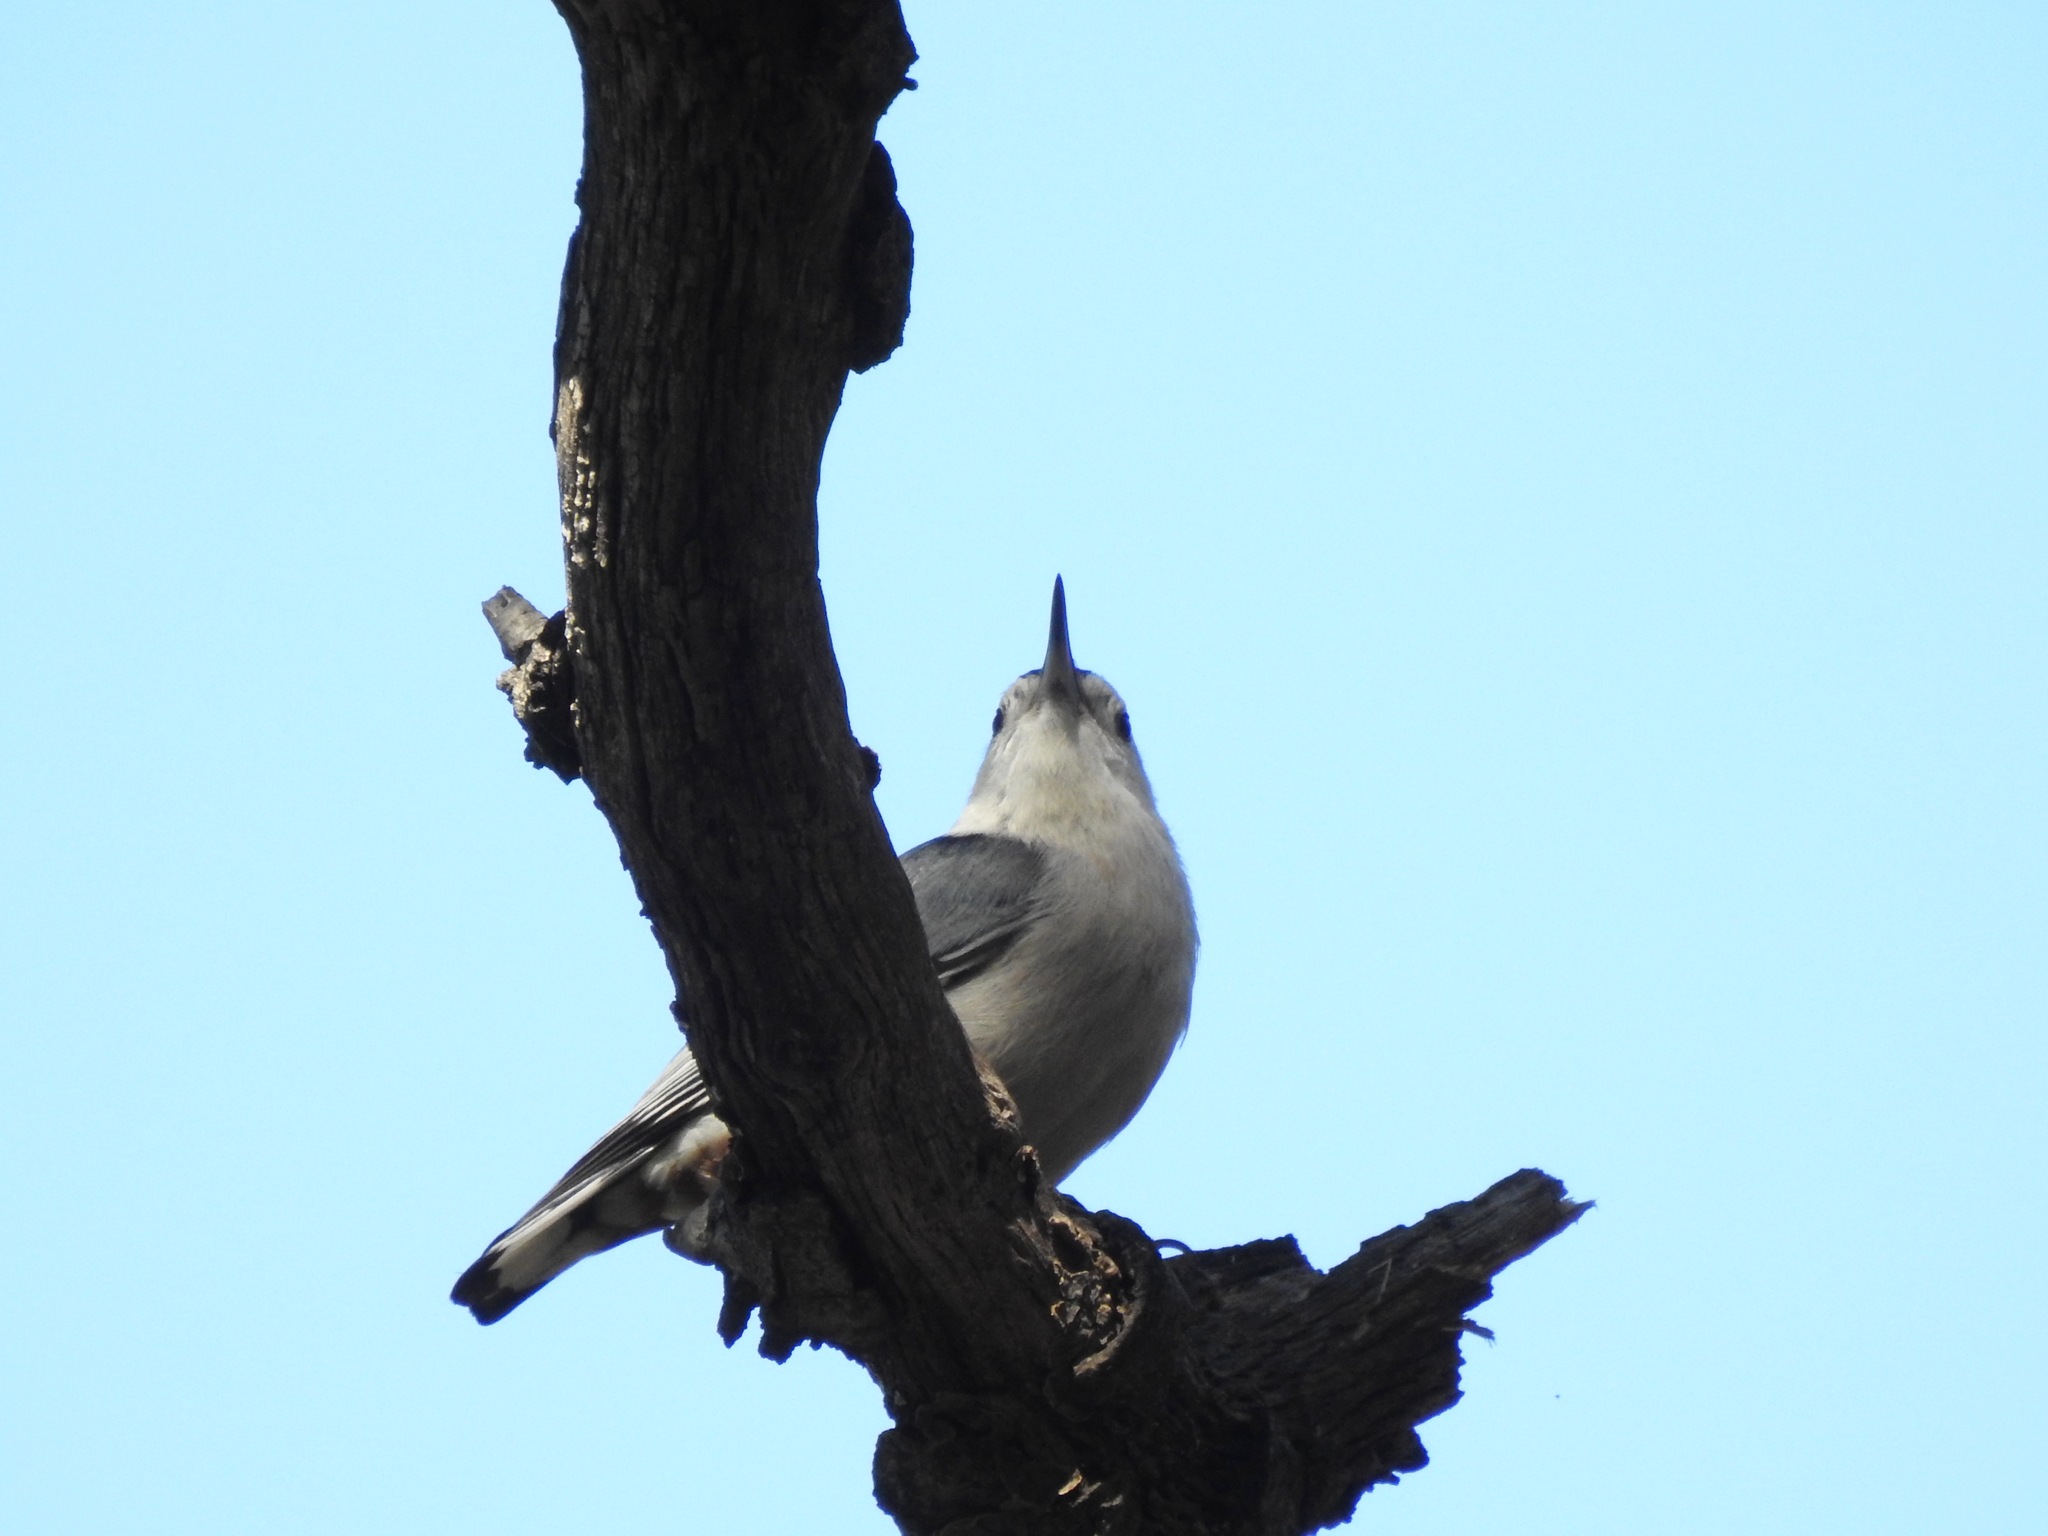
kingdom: Animalia
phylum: Chordata
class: Aves
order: Passeriformes
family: Sittidae
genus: Sitta
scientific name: Sitta carolinensis
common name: White-breasted nuthatch
